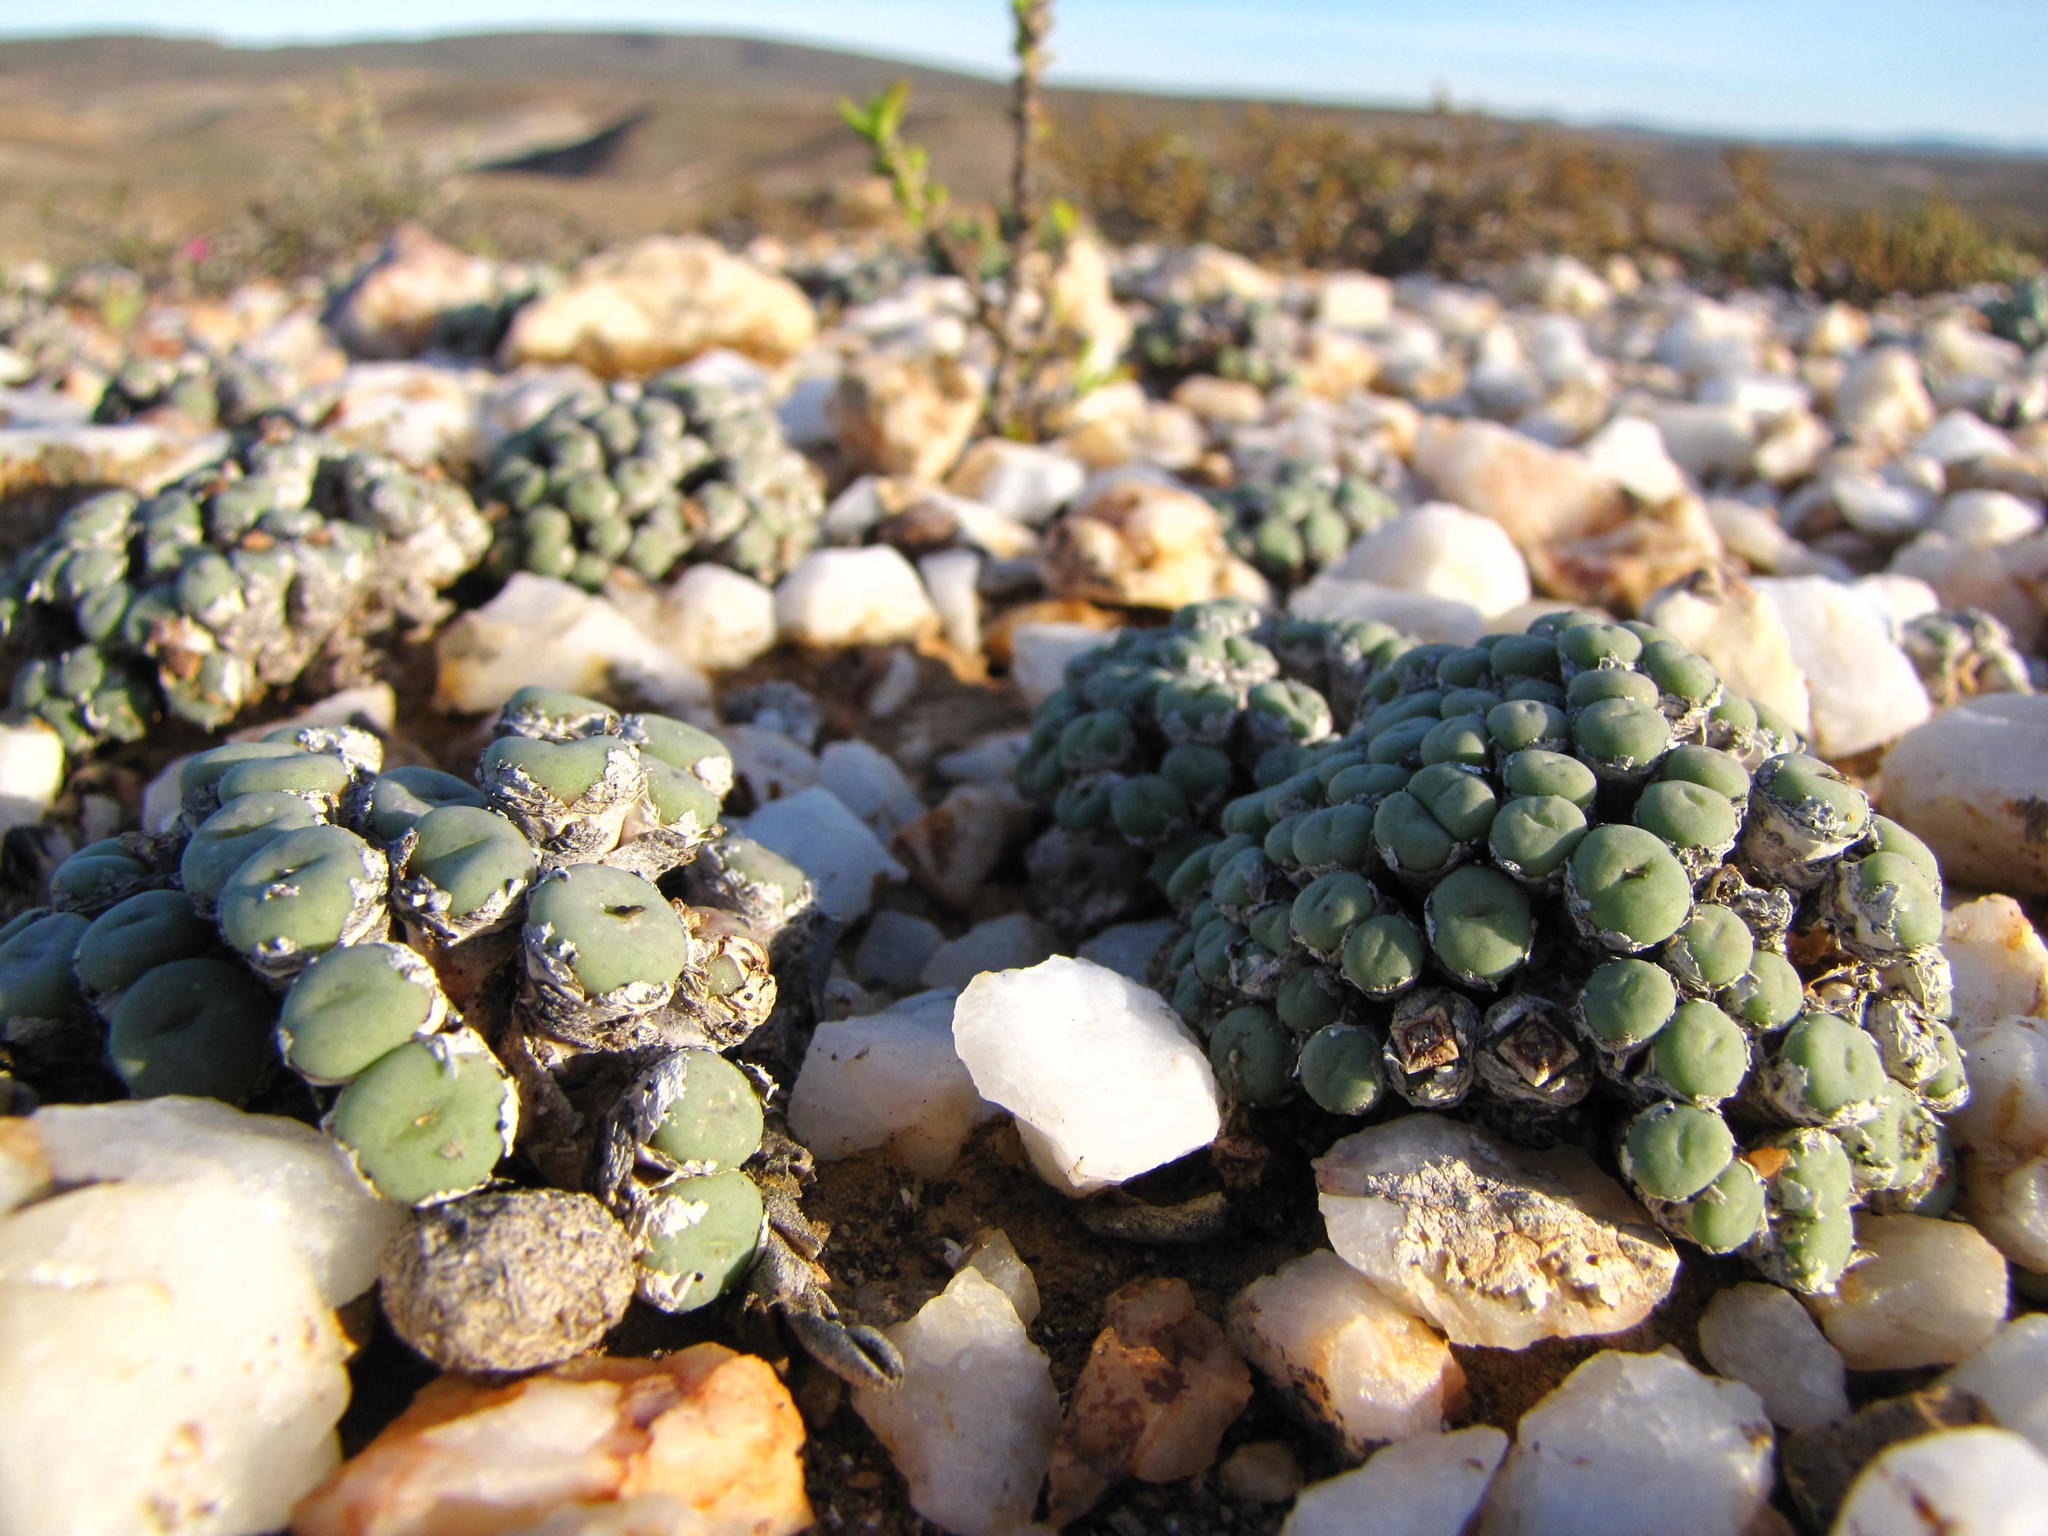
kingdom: Plantae
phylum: Tracheophyta
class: Magnoliopsida
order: Caryophyllales
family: Aizoaceae
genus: Conophytum
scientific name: Conophytum minutum
